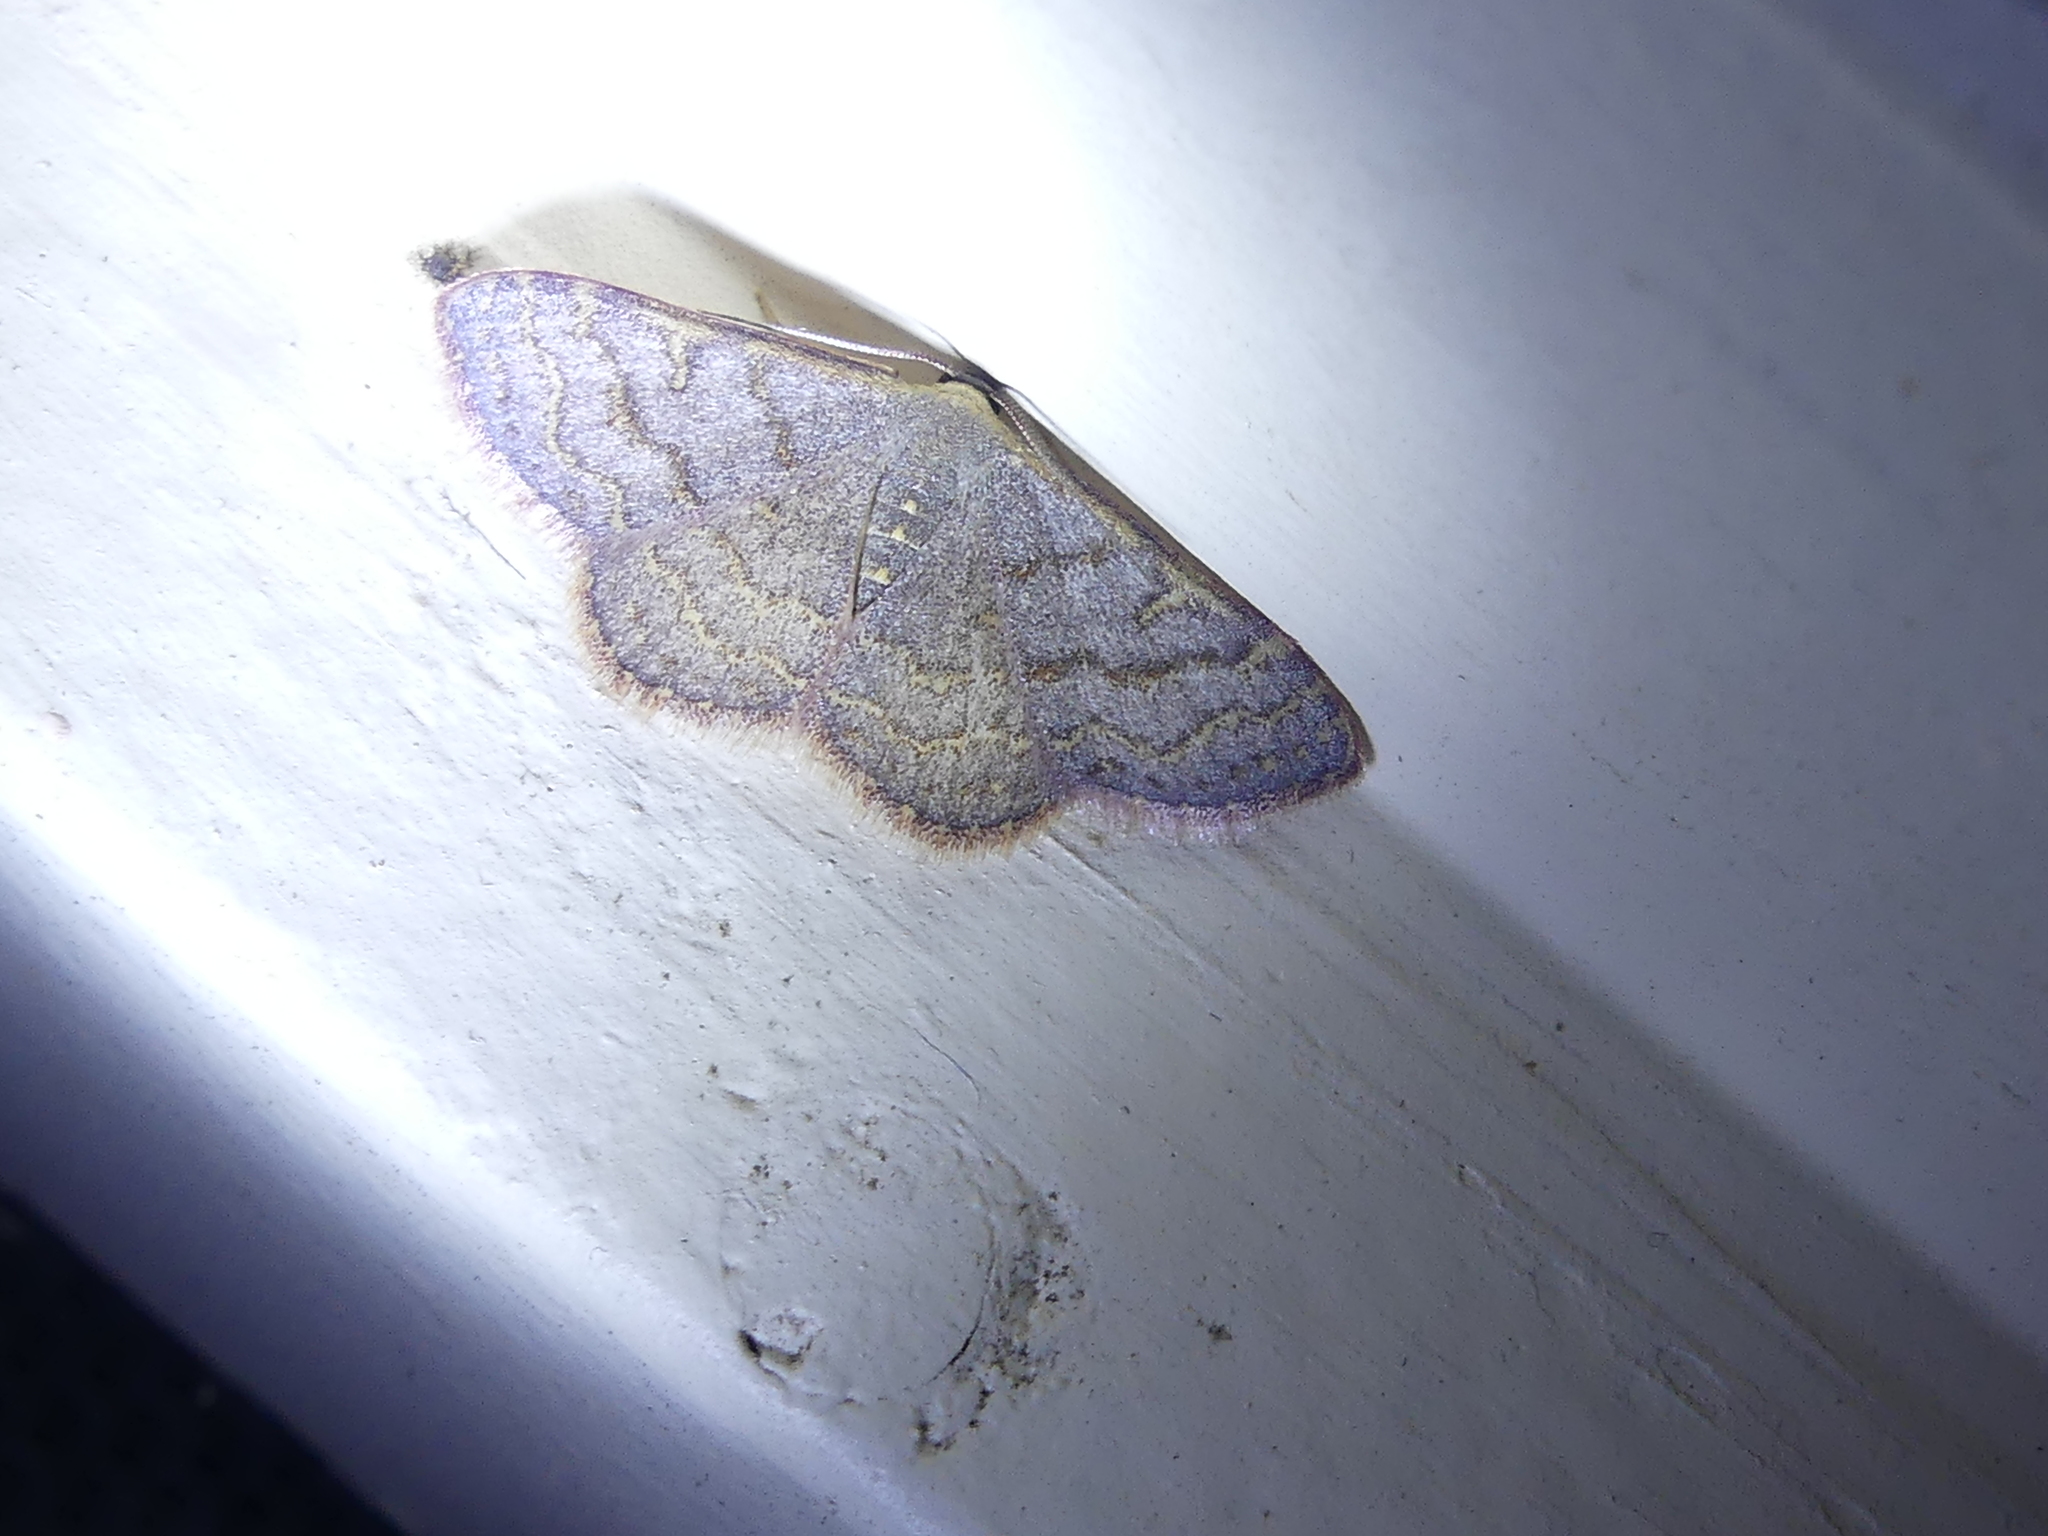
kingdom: Animalia
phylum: Arthropoda
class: Insecta
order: Lepidoptera
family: Geometridae
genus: Leptostales
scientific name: Leptostales pannaria
